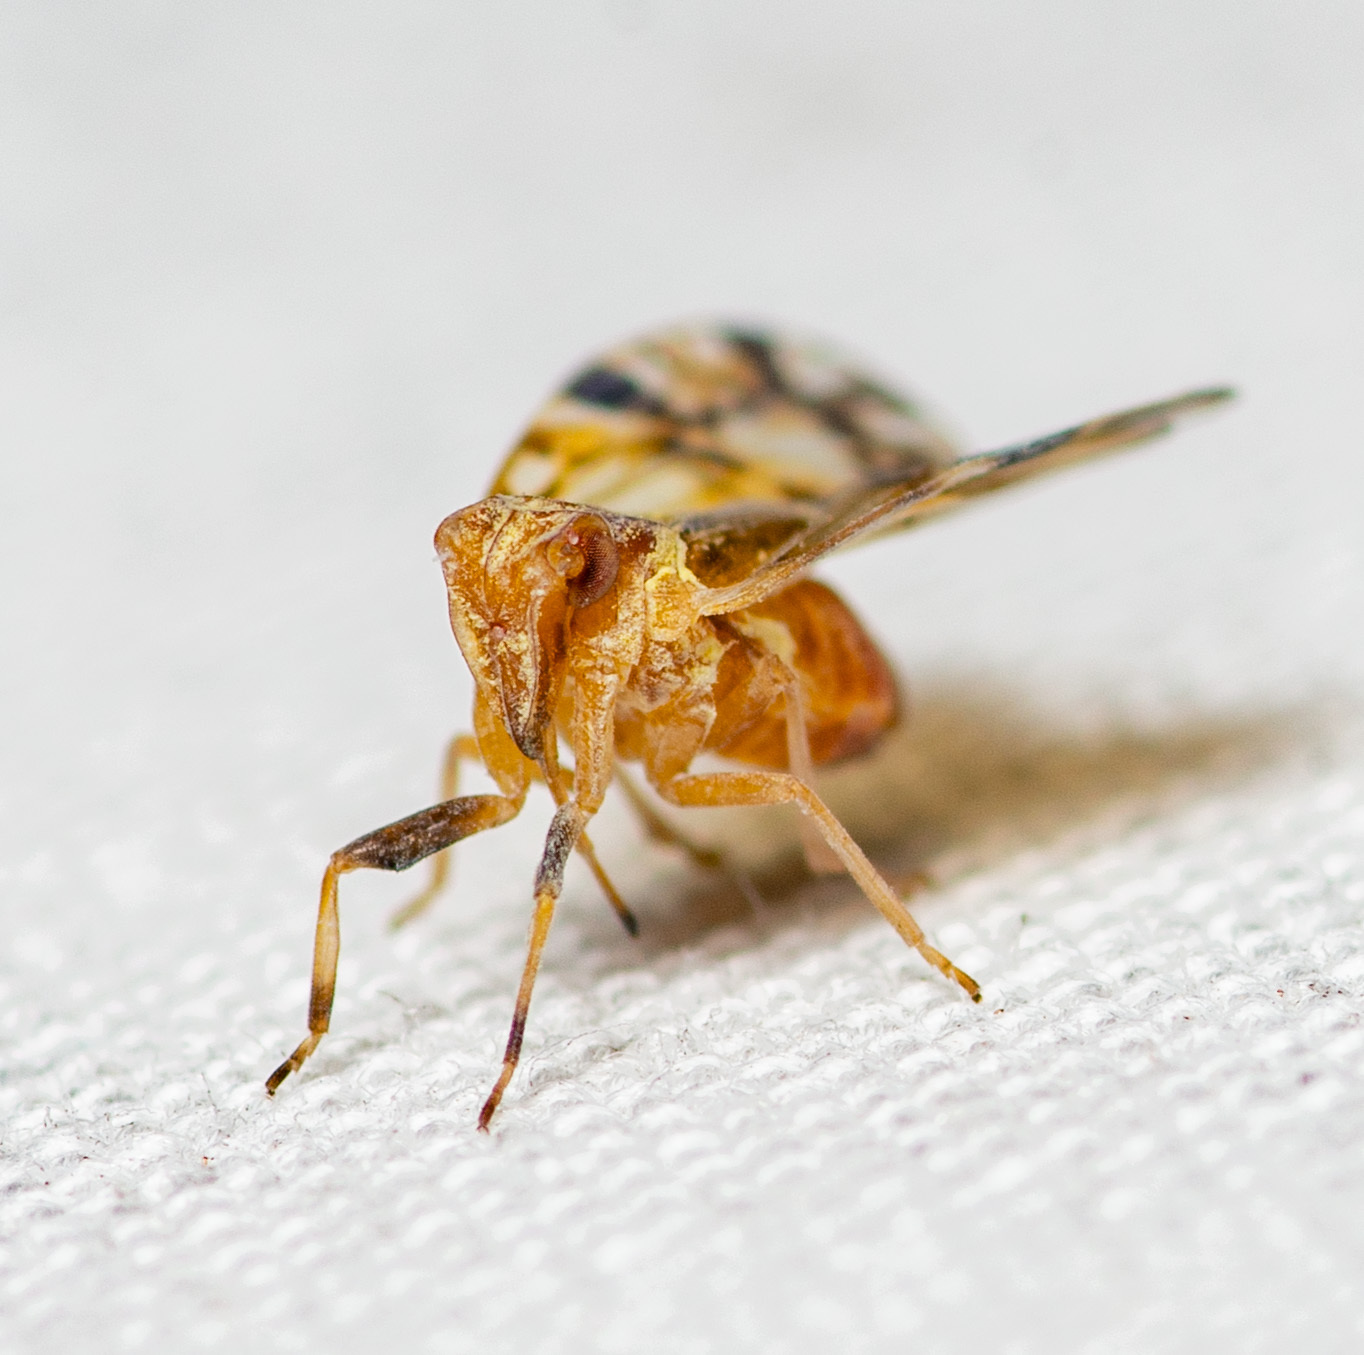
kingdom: Animalia
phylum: Arthropoda
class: Insecta
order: Hemiptera
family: Cixiidae
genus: Bothriocera
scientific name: Bothriocera knulli
